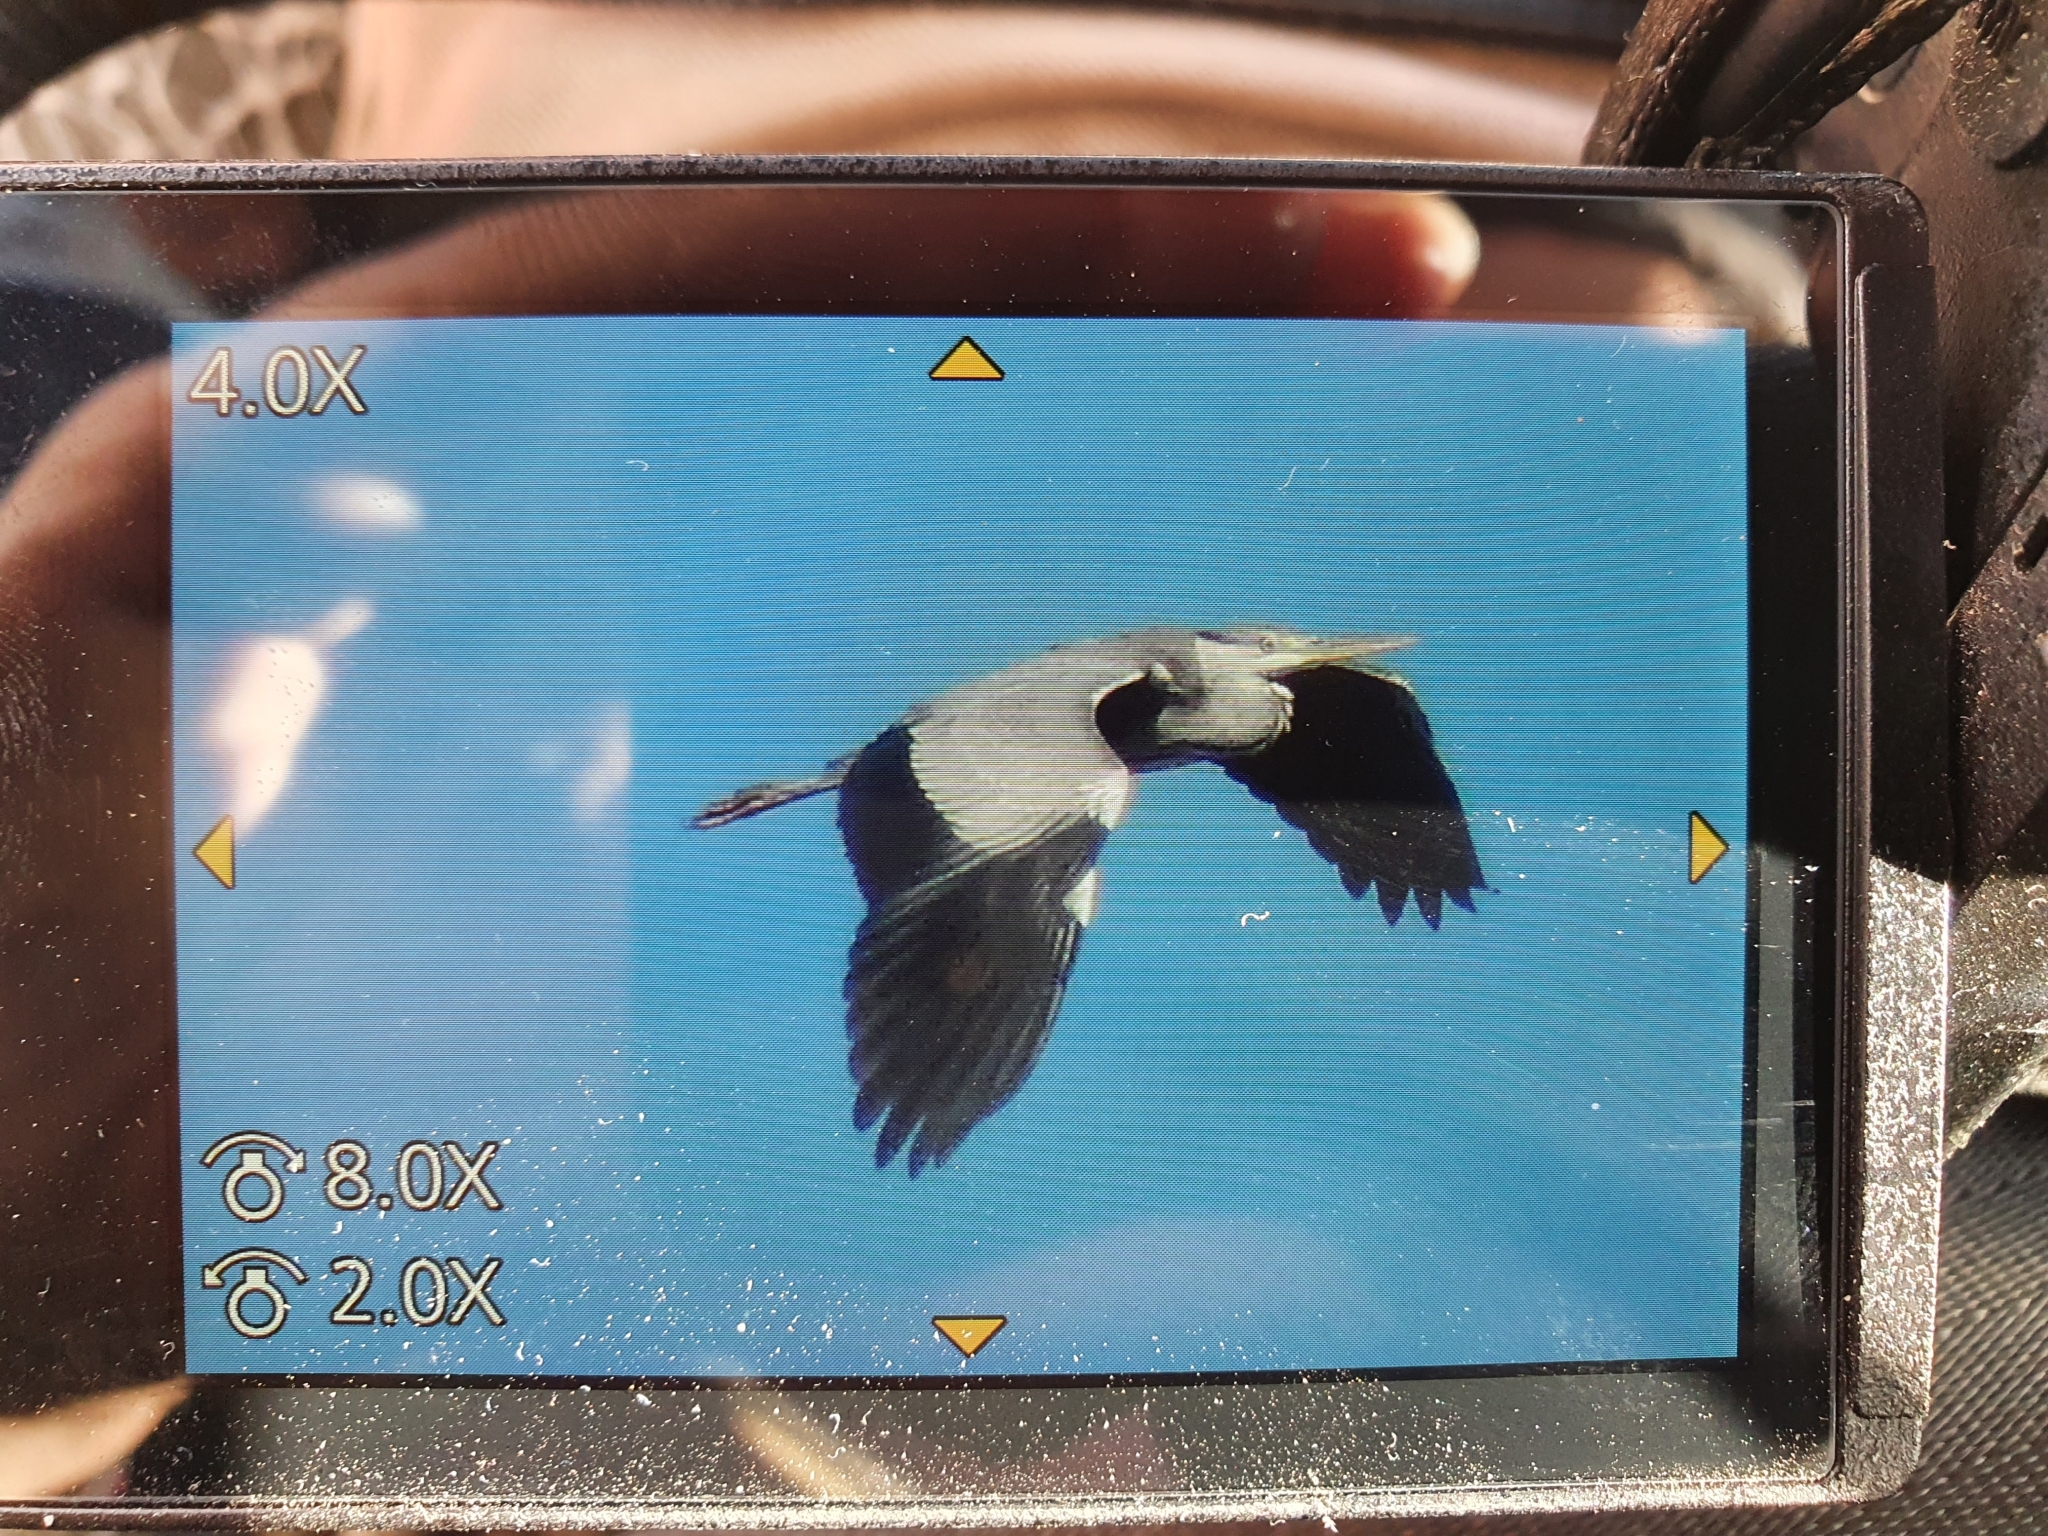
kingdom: Animalia
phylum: Chordata
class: Aves
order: Pelecaniformes
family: Ardeidae
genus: Ardea
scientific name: Ardea cinerea
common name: Grey heron
